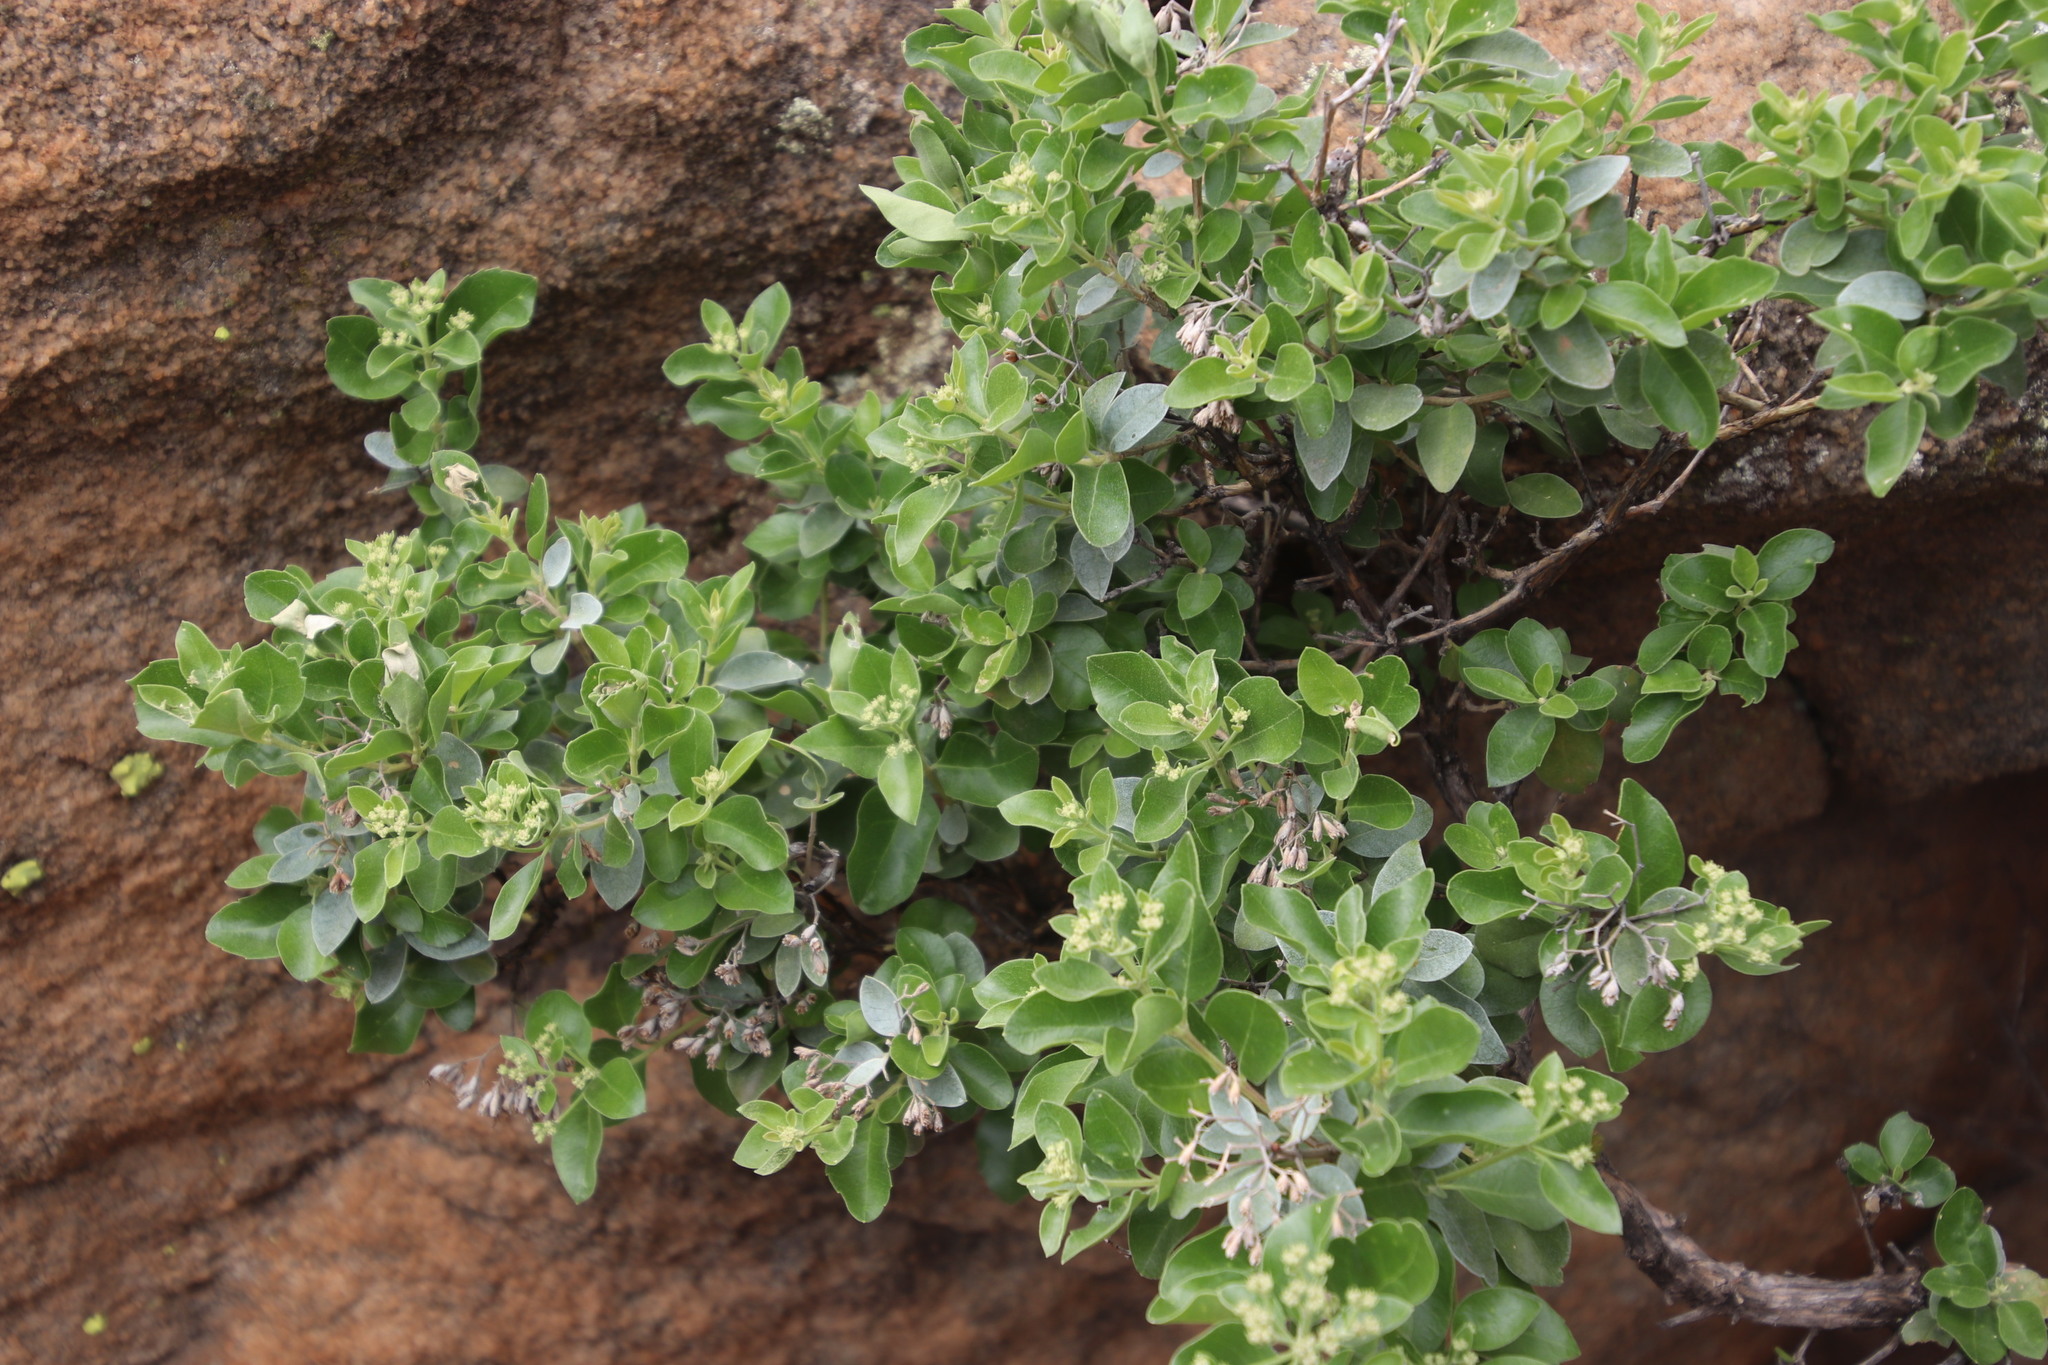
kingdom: Plantae
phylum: Tracheophyta
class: Magnoliopsida
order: Lamiales
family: Stilbaceae
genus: Nuxia
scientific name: Nuxia congesta
